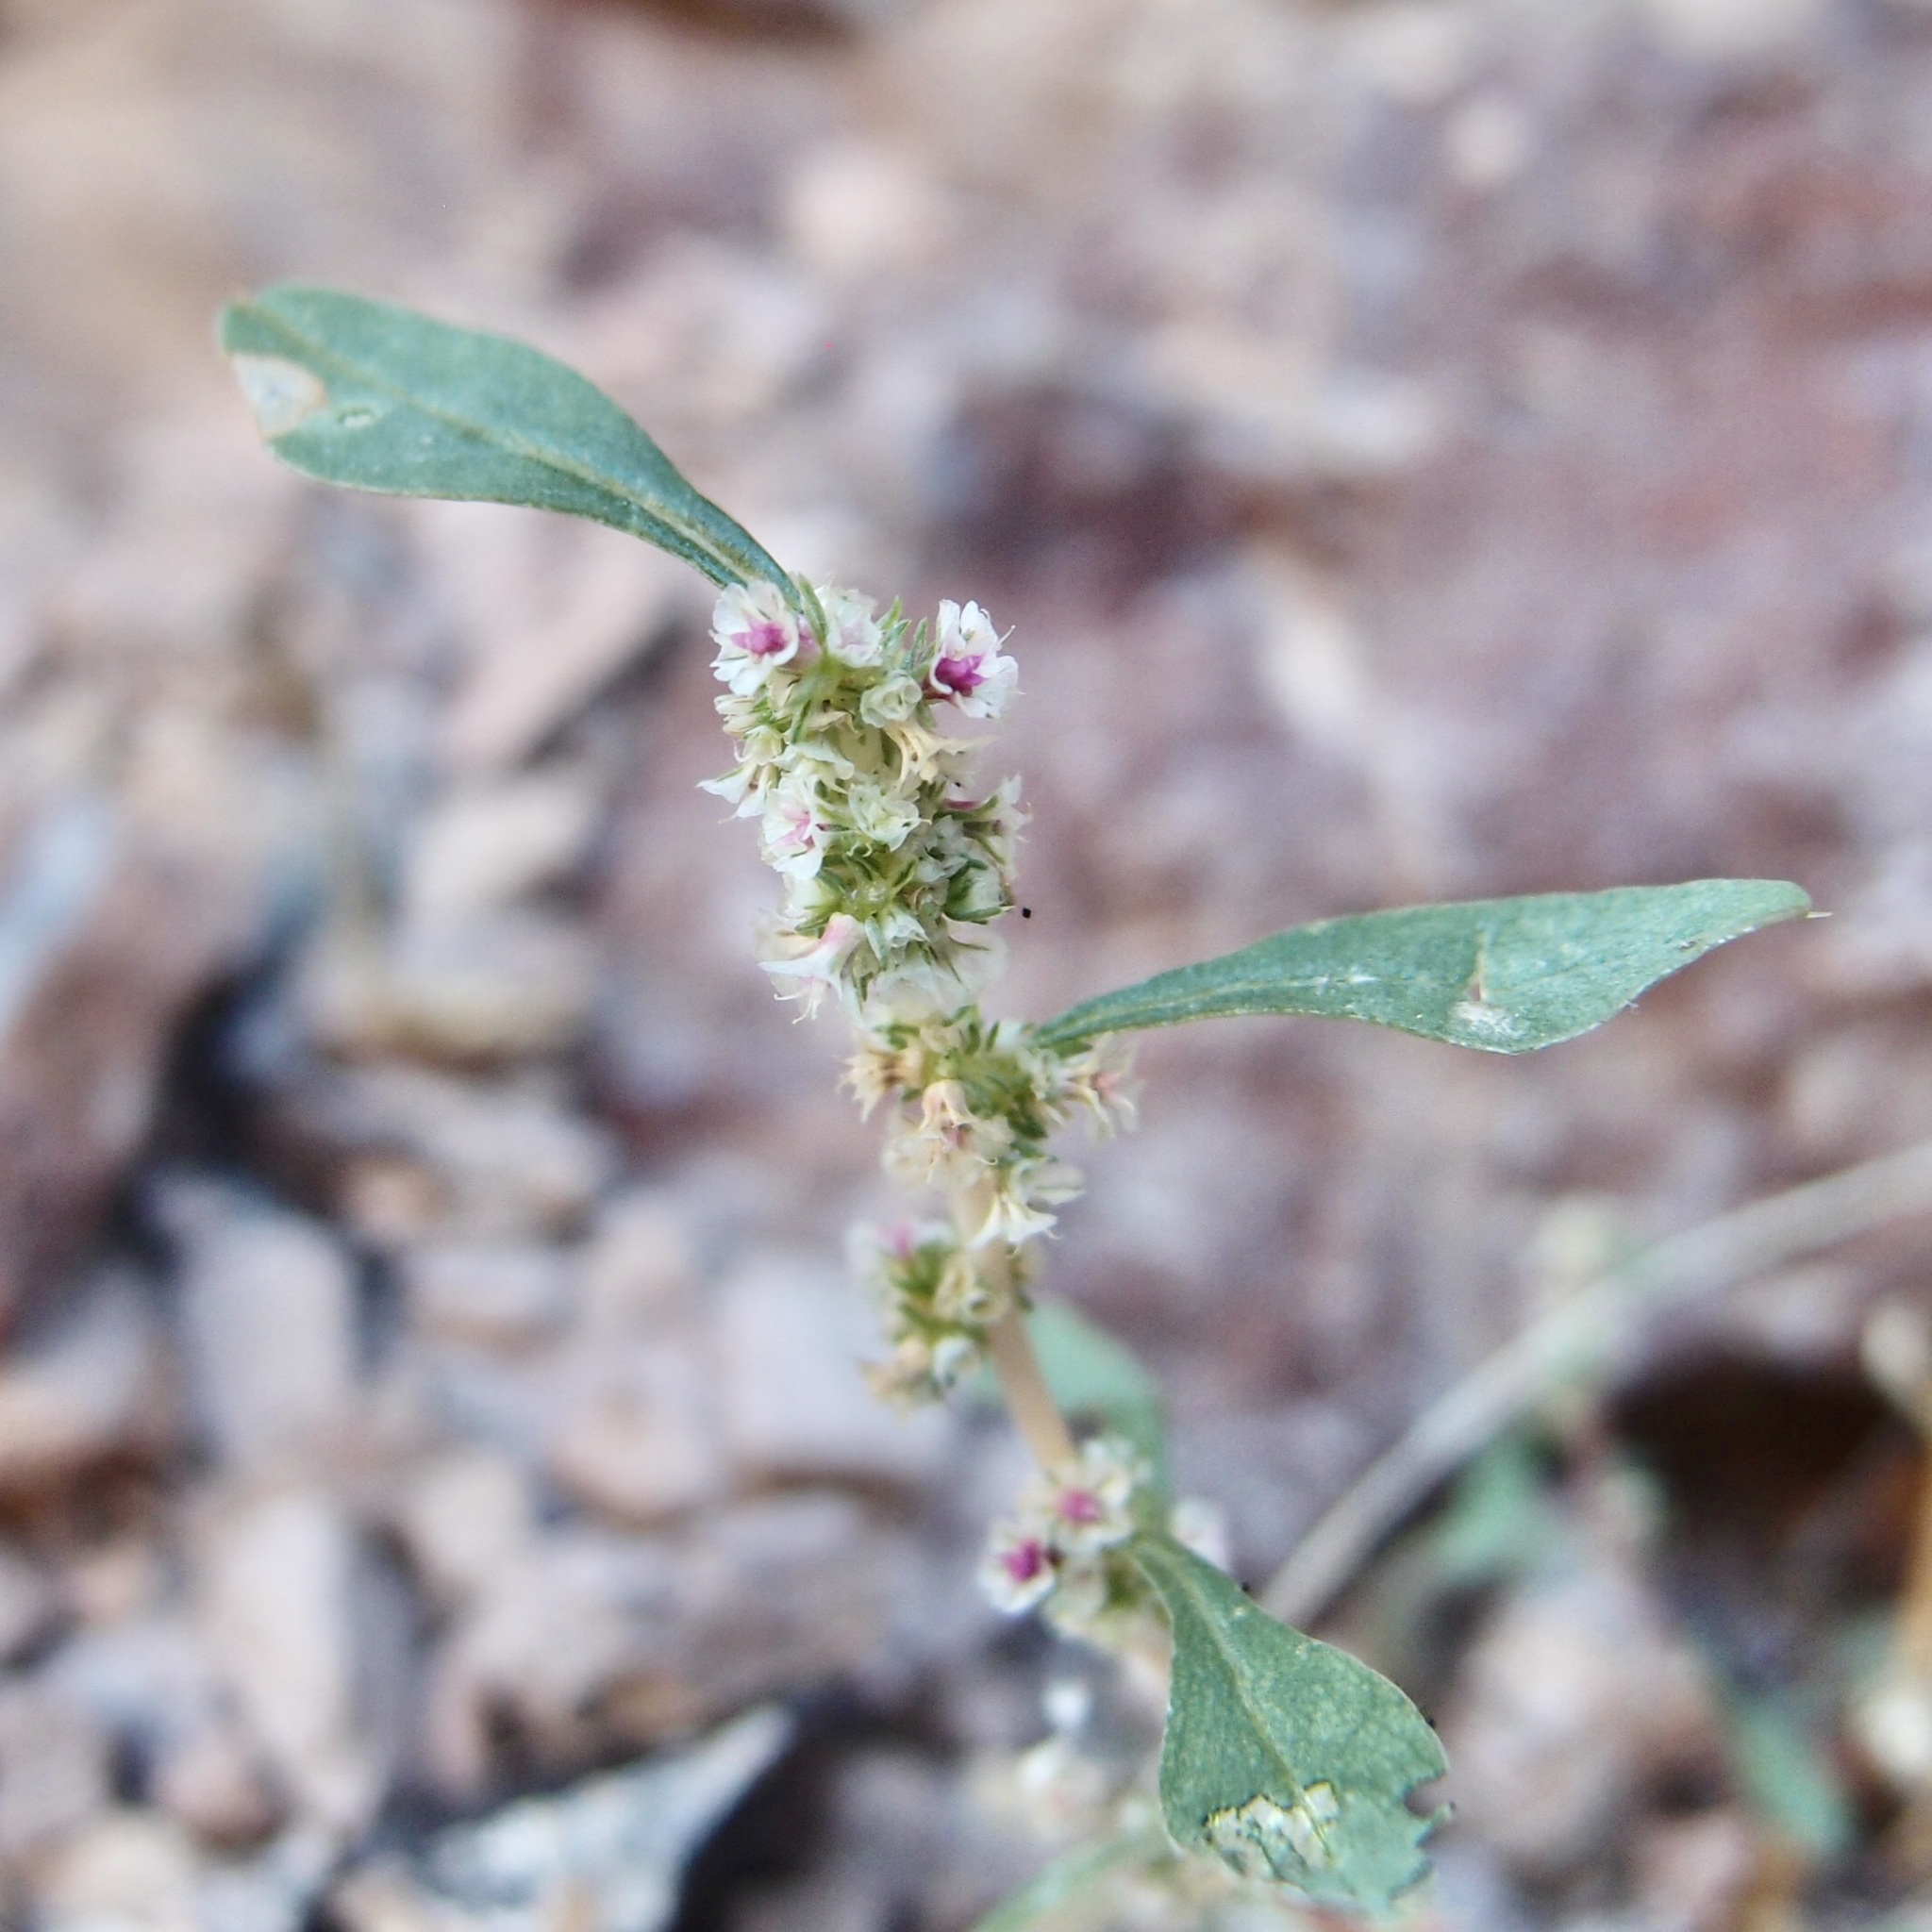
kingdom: Plantae
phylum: Tracheophyta
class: Magnoliopsida
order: Caryophyllales
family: Amaranthaceae
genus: Amaranthus
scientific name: Amaranthus obcordatus
